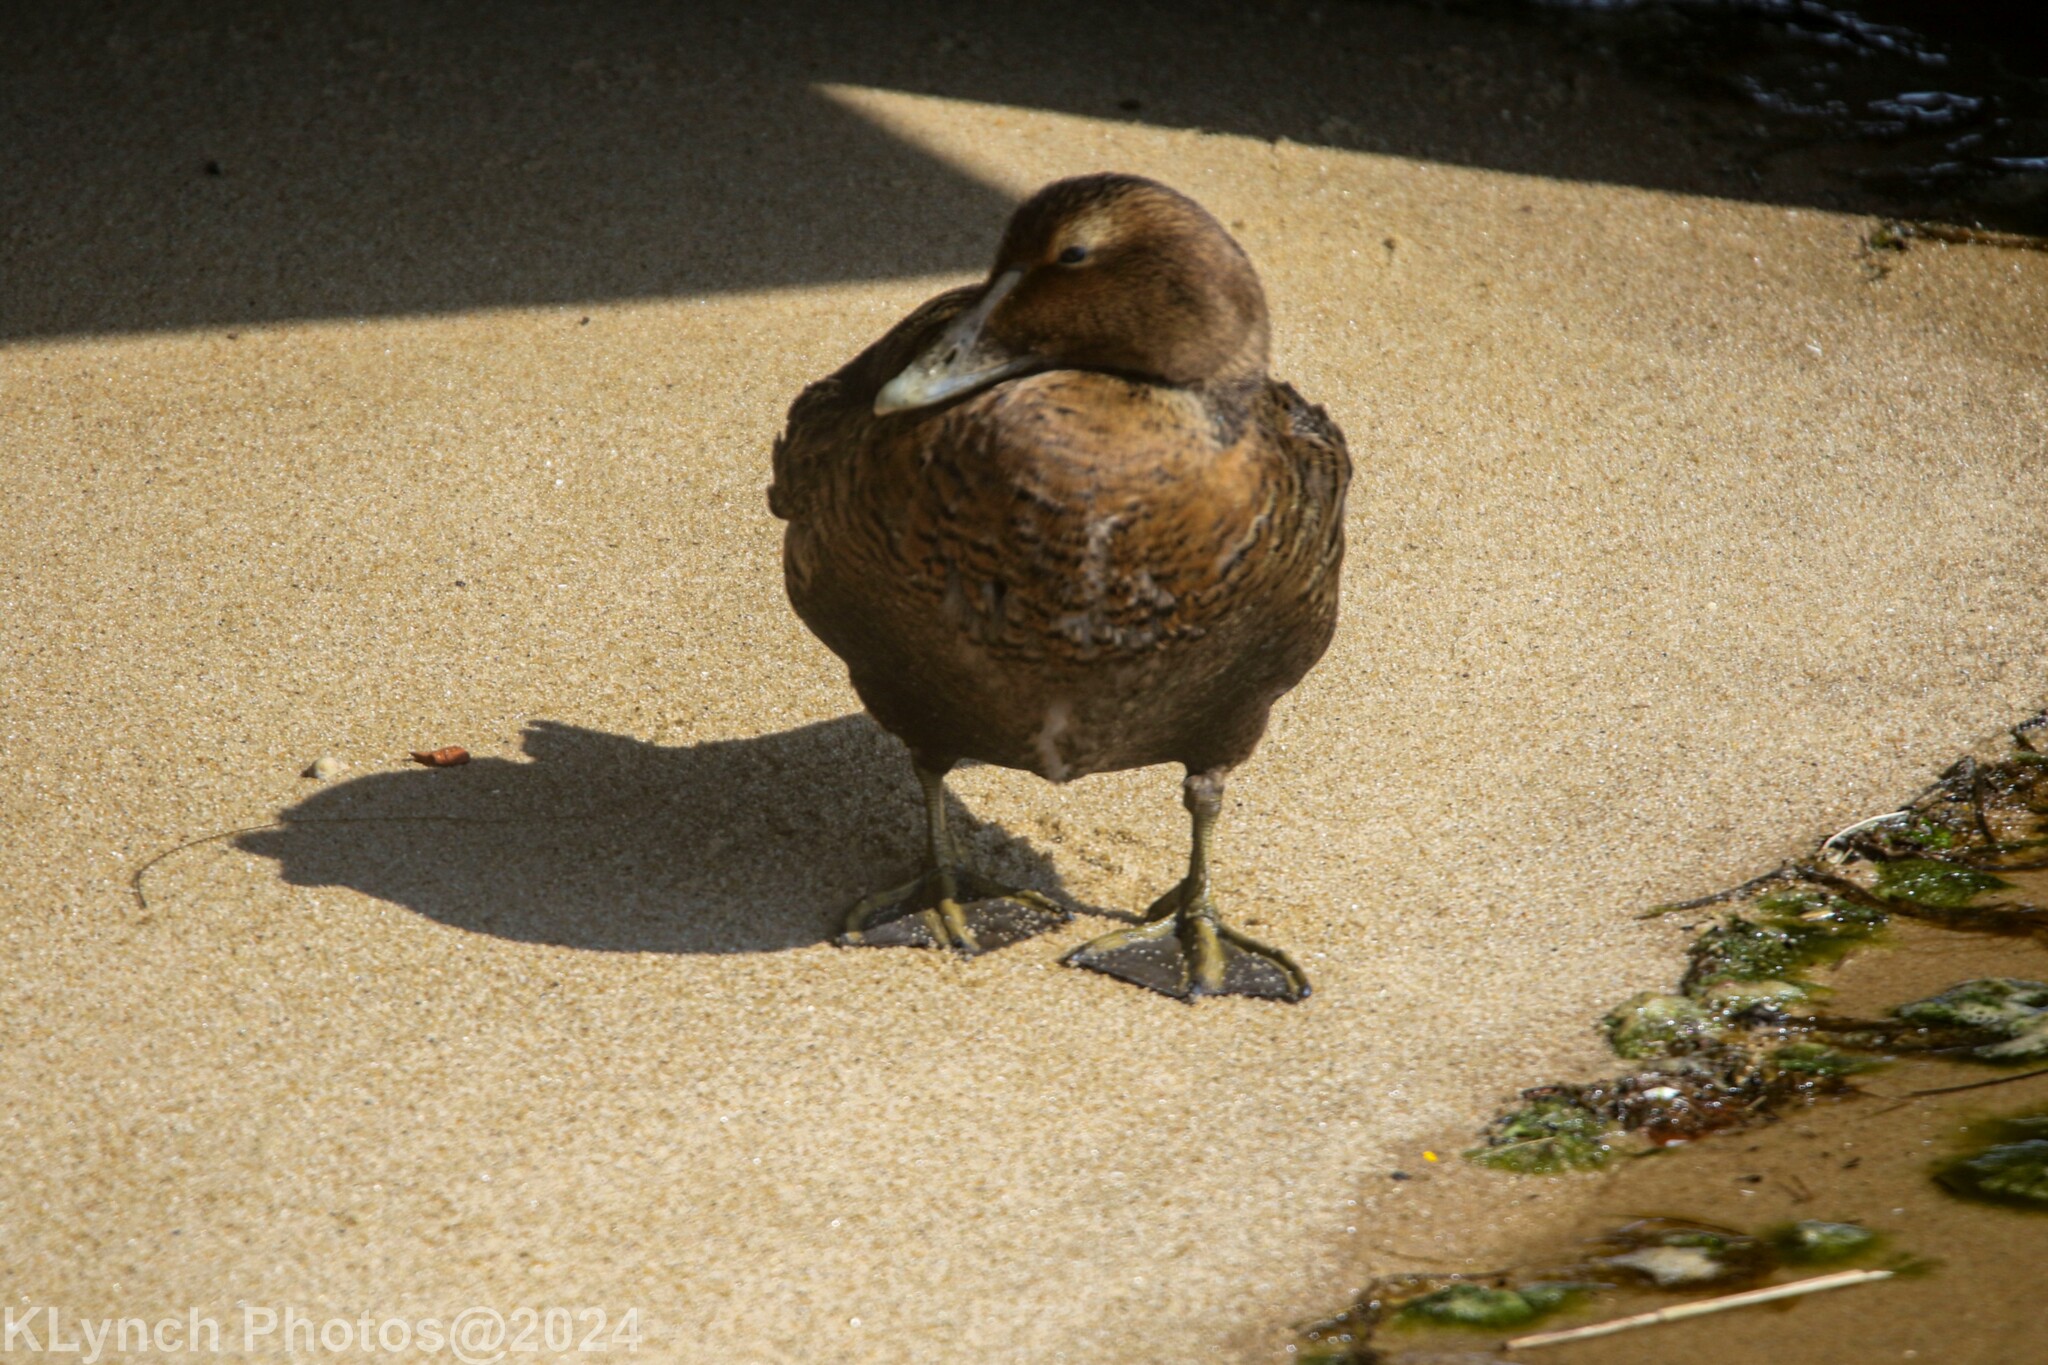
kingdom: Animalia
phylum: Chordata
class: Aves
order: Anseriformes
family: Anatidae
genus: Somateria
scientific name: Somateria mollissima
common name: Common eider
